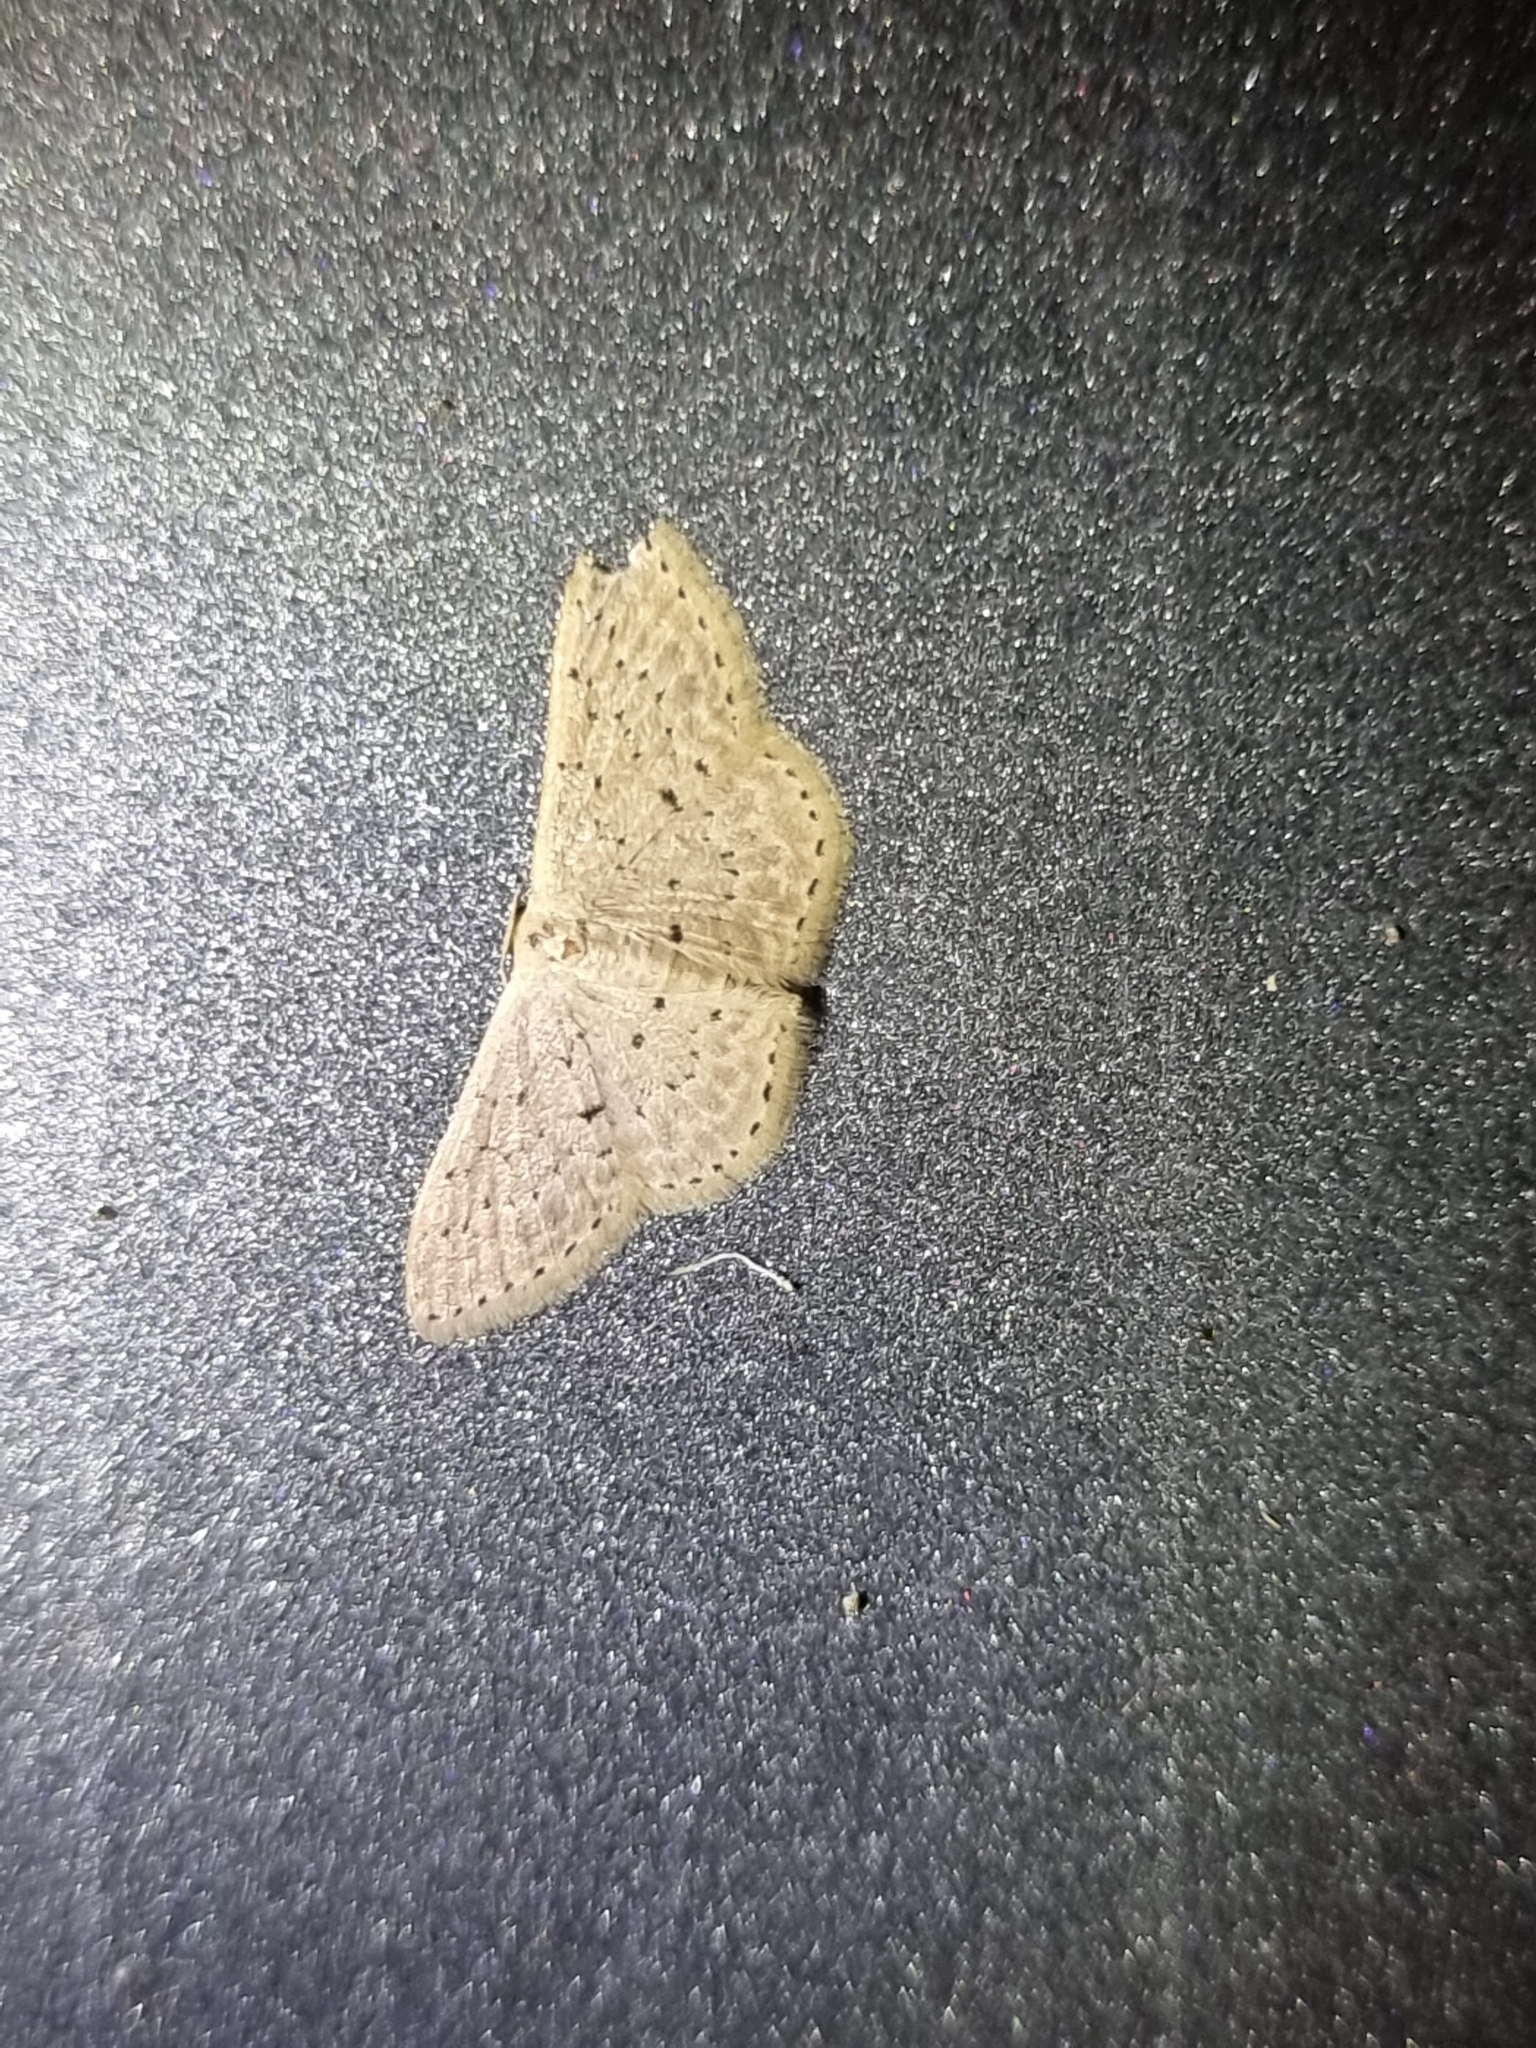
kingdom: Animalia
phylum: Arthropoda
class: Insecta
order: Lepidoptera
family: Geometridae
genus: Idaea
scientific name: Idaea philocosma
